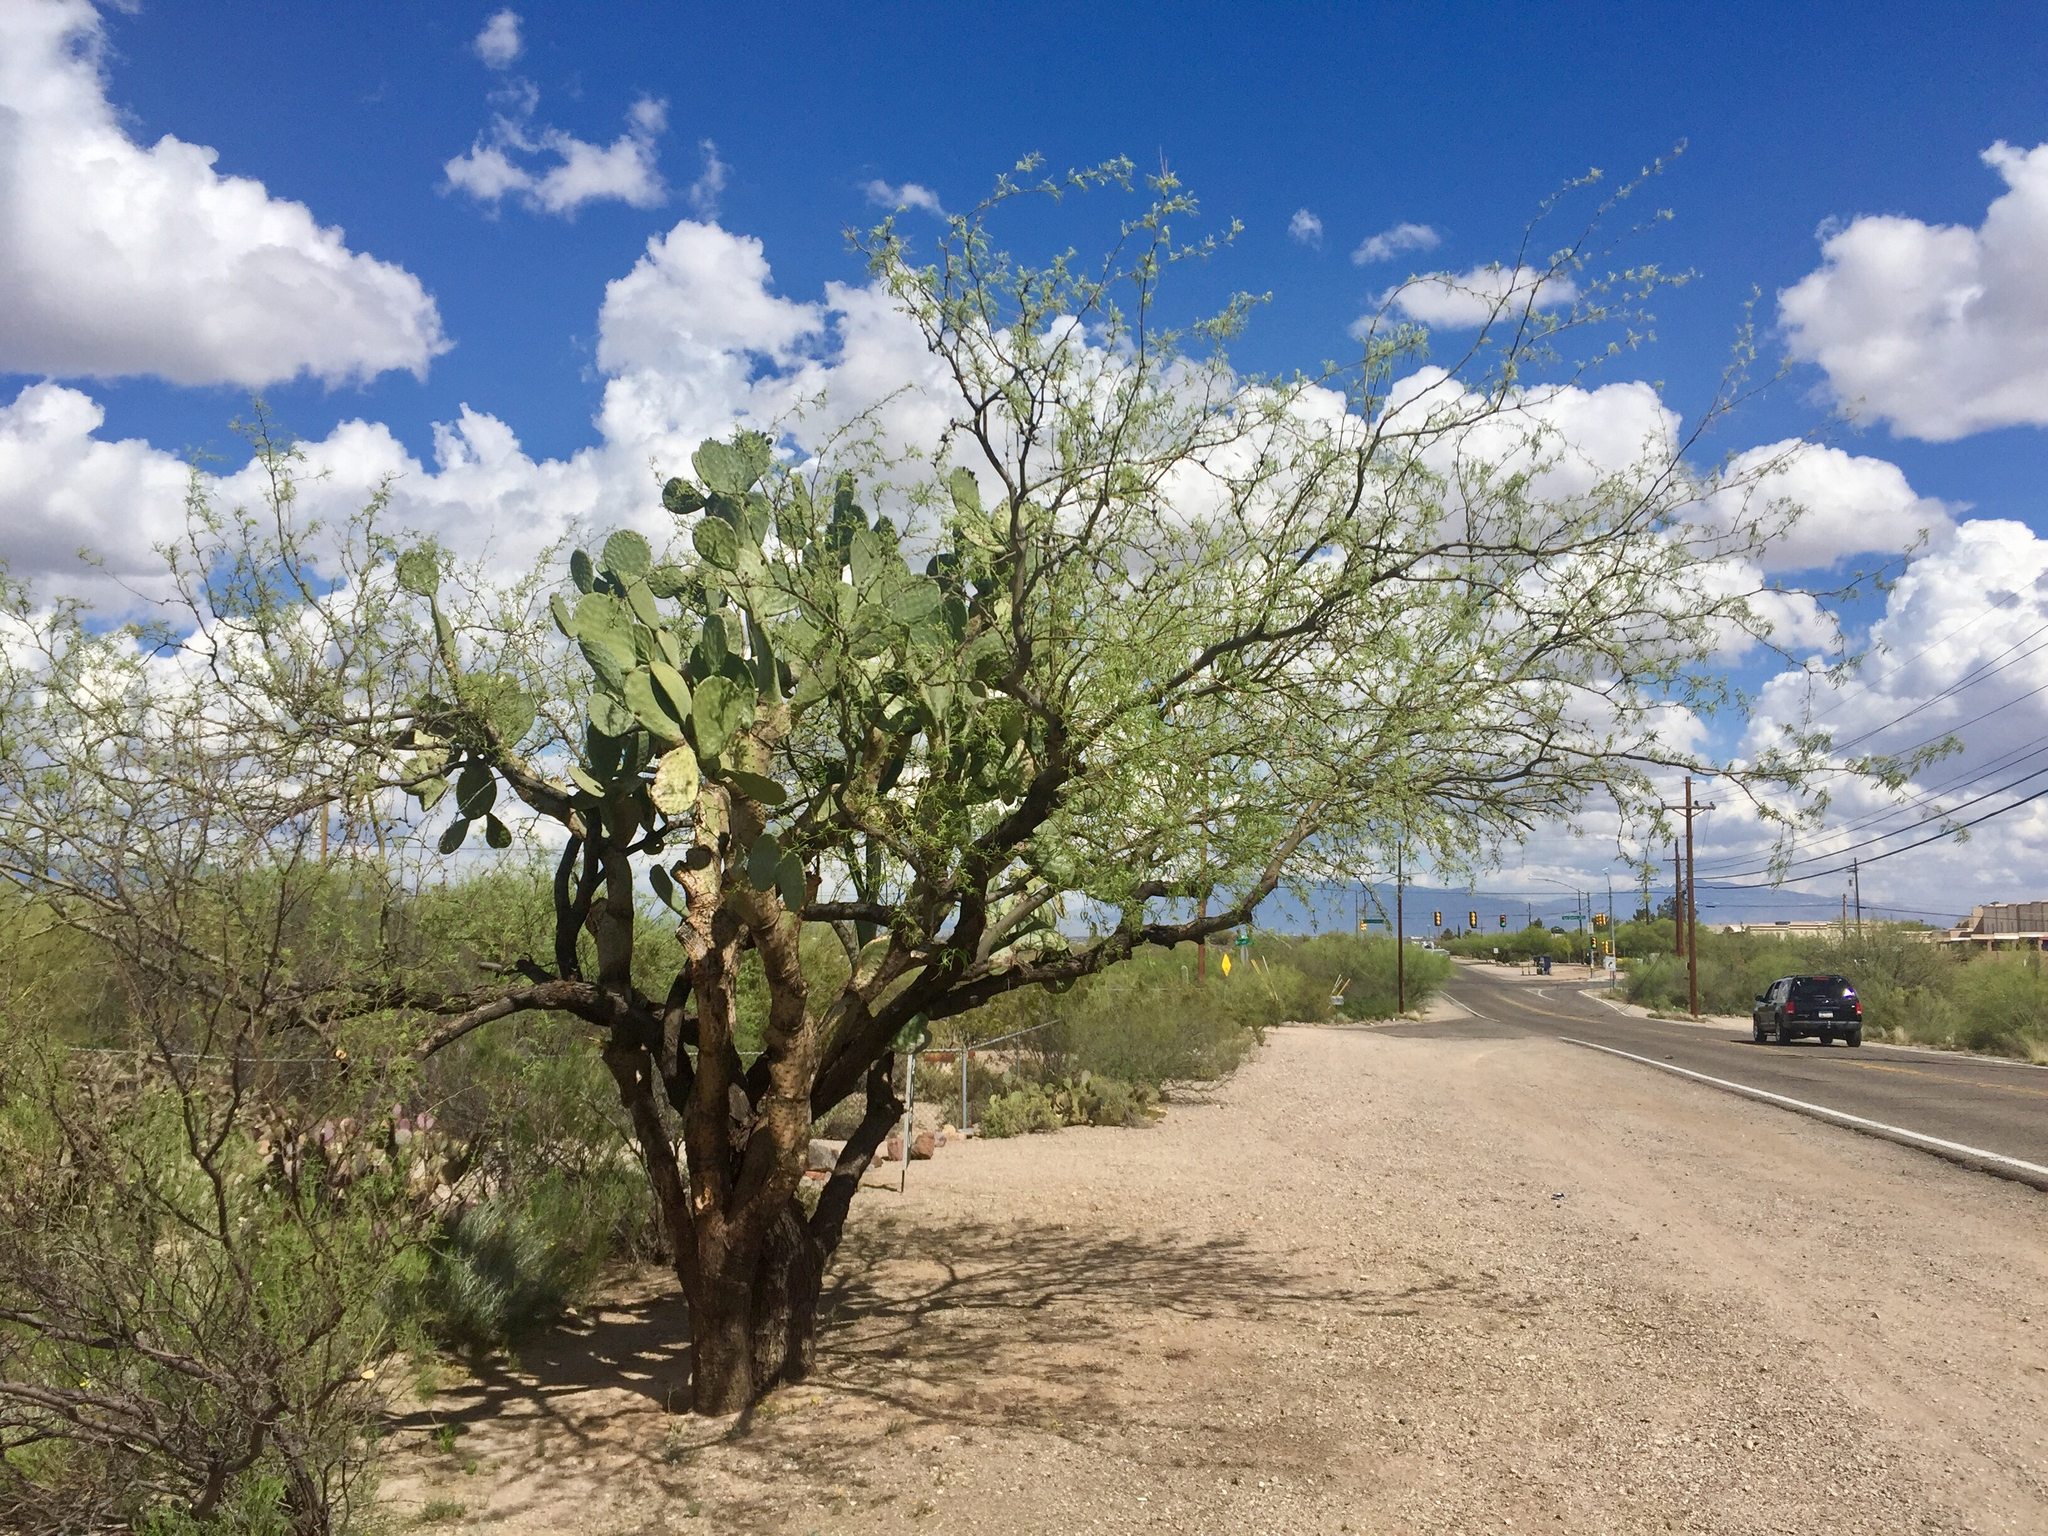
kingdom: Plantae
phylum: Tracheophyta
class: Magnoliopsida
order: Caryophyllales
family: Cactaceae
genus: Opuntia
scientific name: Opuntia ficus-indica
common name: Barbary fig
